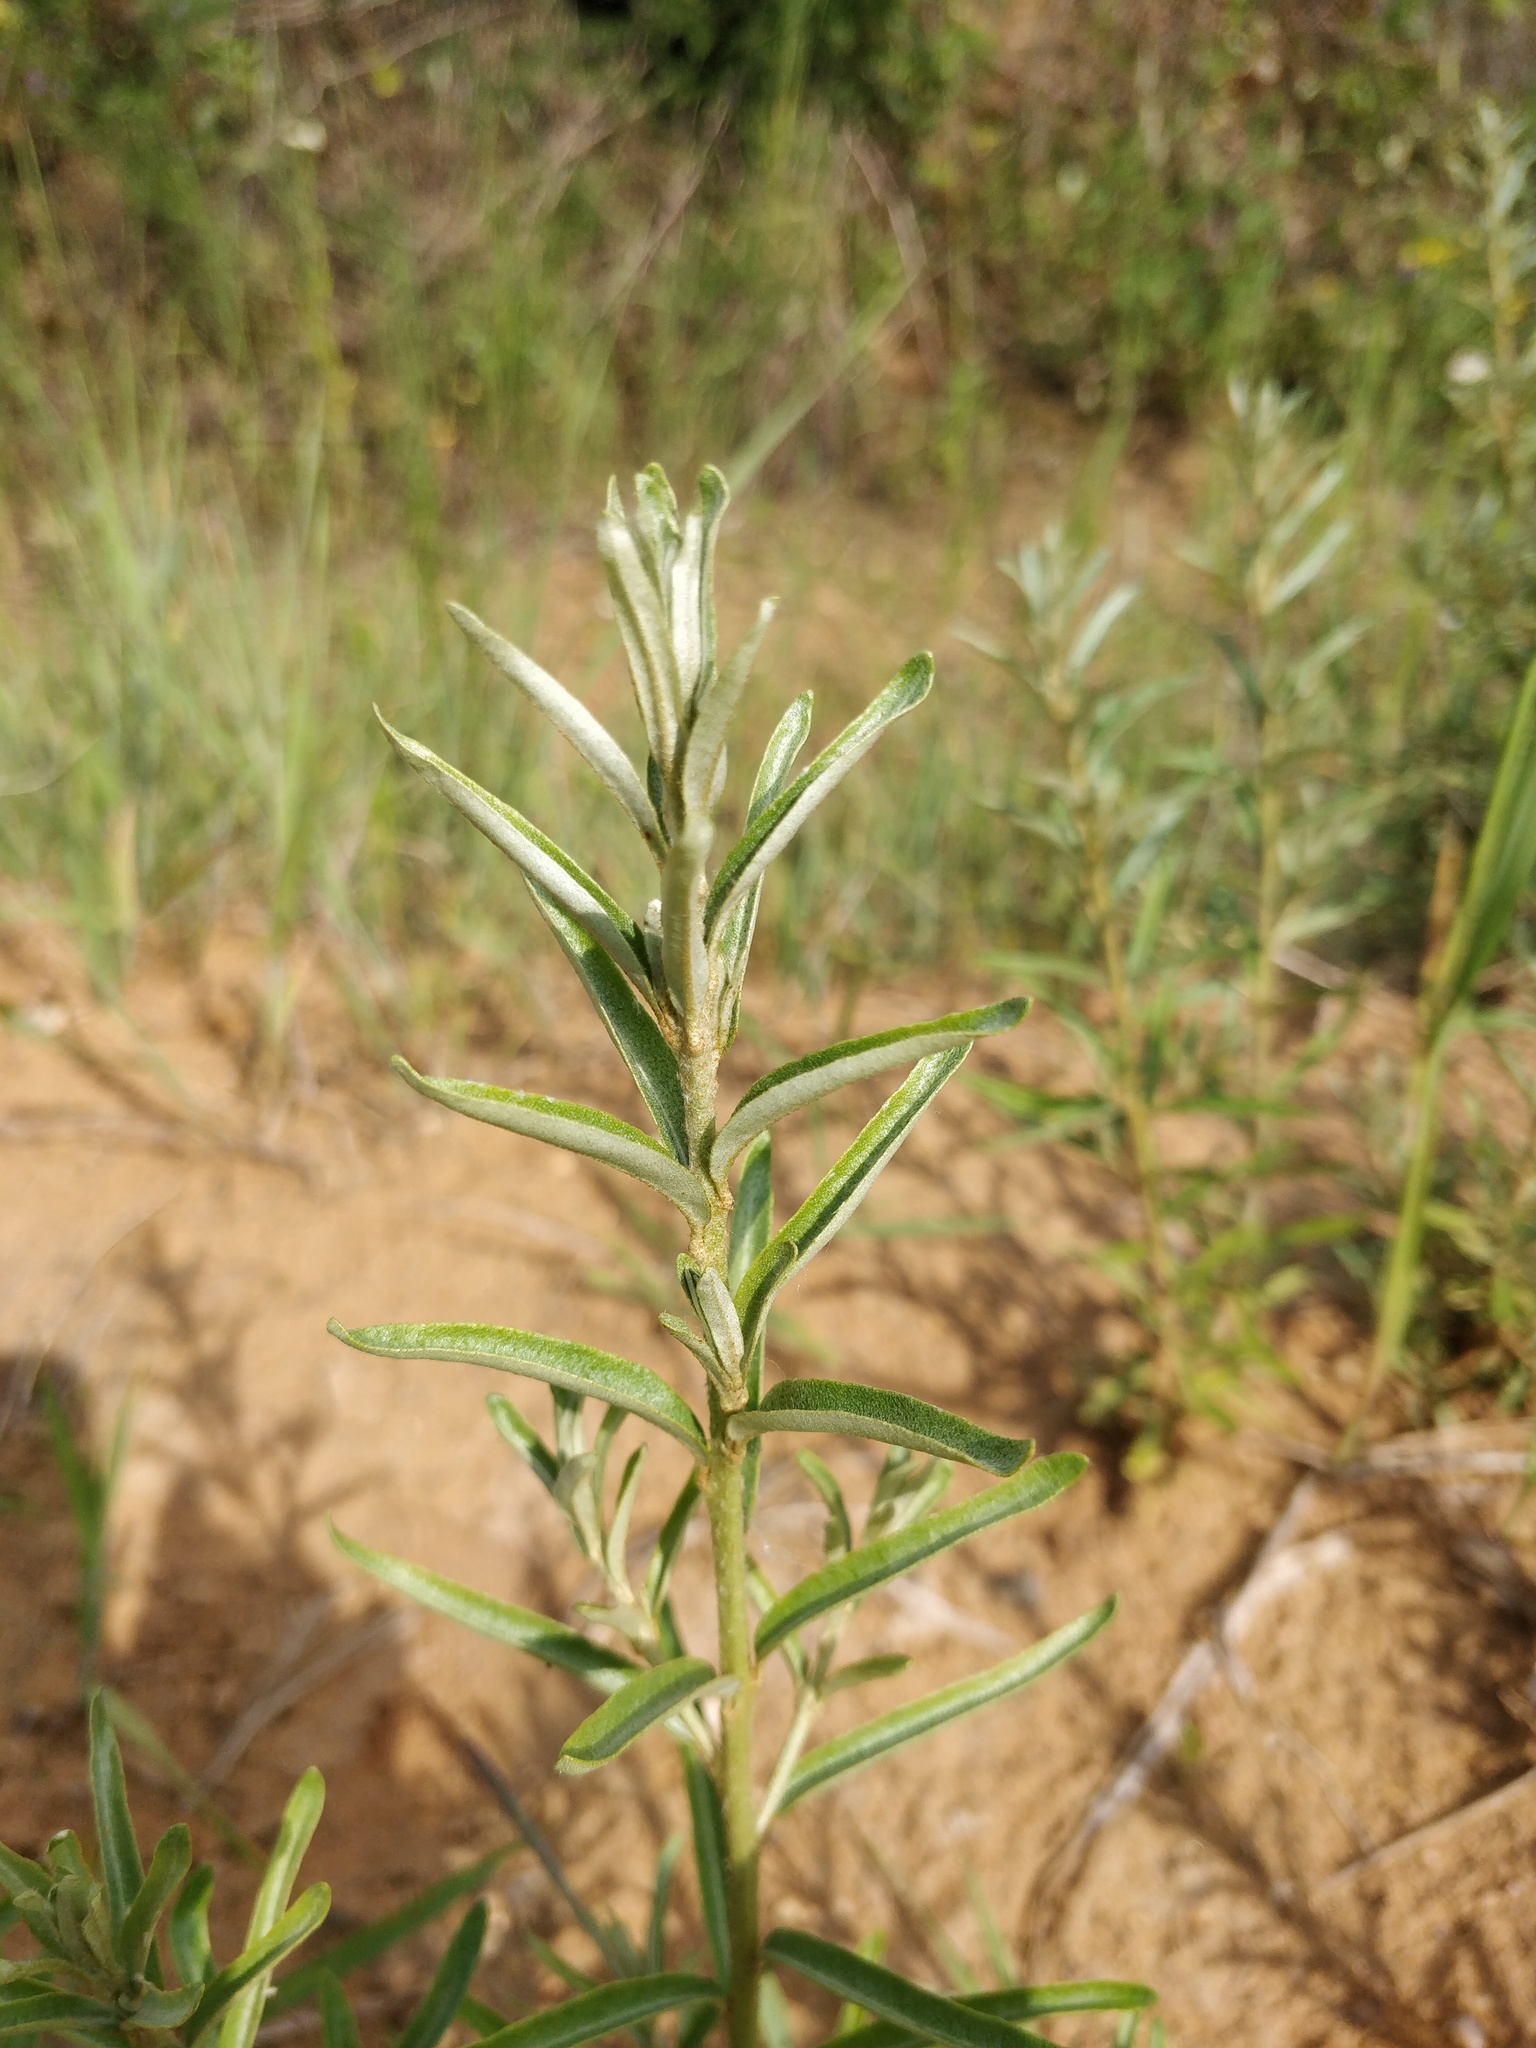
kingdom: Plantae
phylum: Tracheophyta
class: Magnoliopsida
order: Rosales
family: Elaeagnaceae
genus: Hippophae
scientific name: Hippophae rhamnoides
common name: Sea-buckthorn
